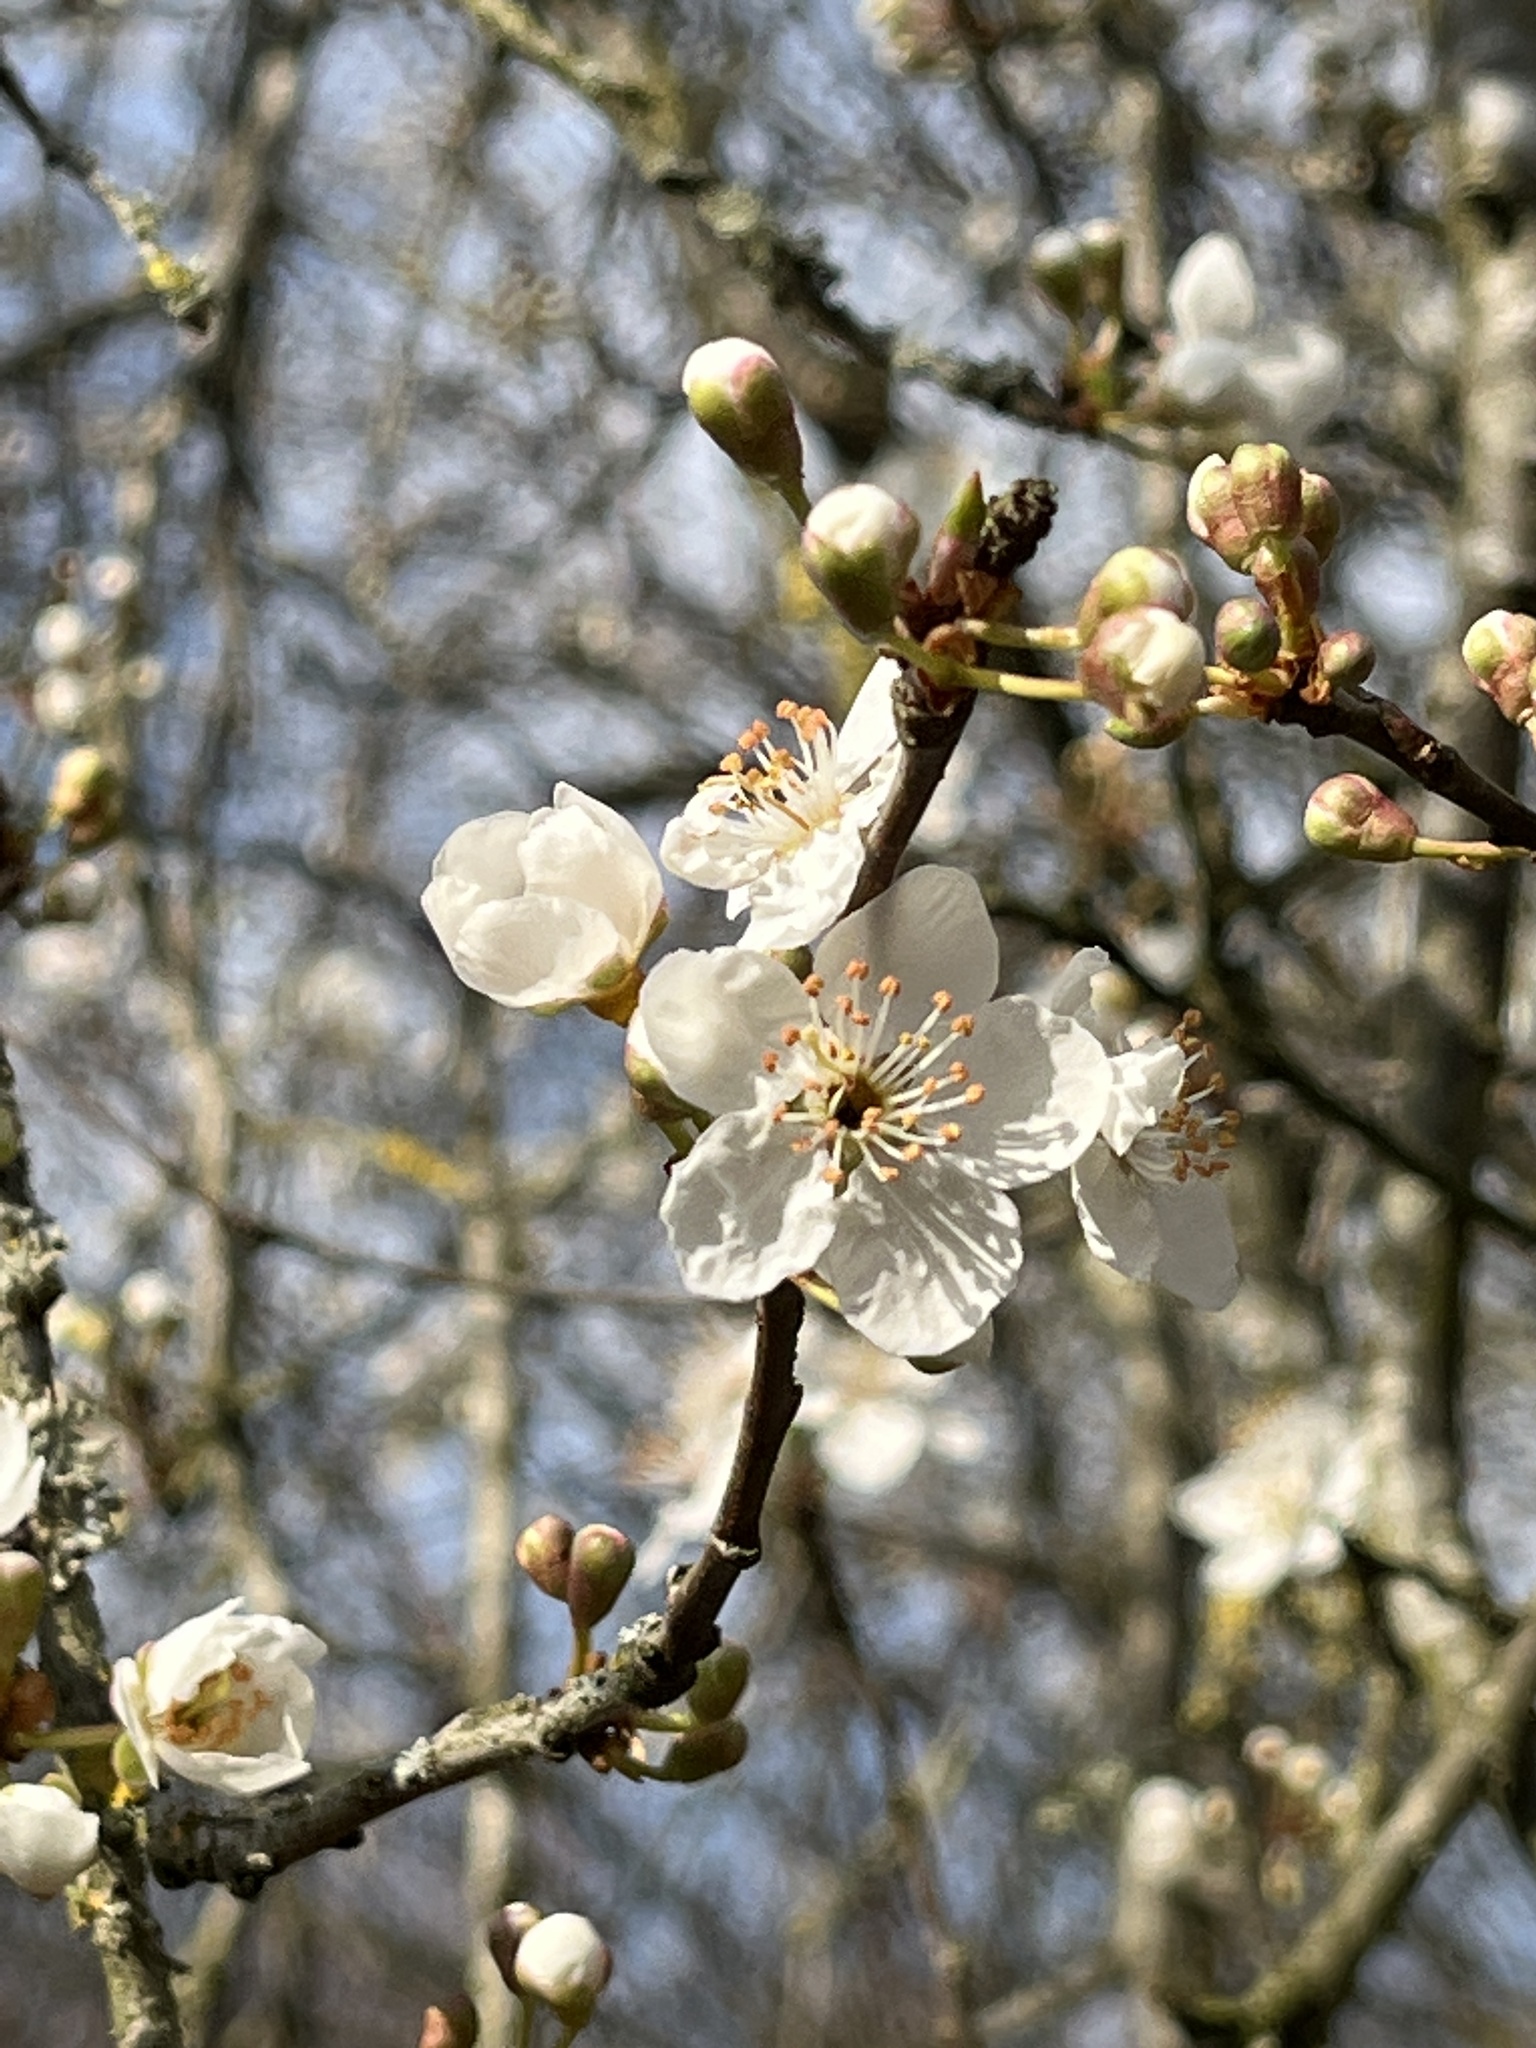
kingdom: Plantae
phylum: Tracheophyta
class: Magnoliopsida
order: Rosales
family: Rosaceae
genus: Prunus
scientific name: Prunus cerasifera
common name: Cherry plum
